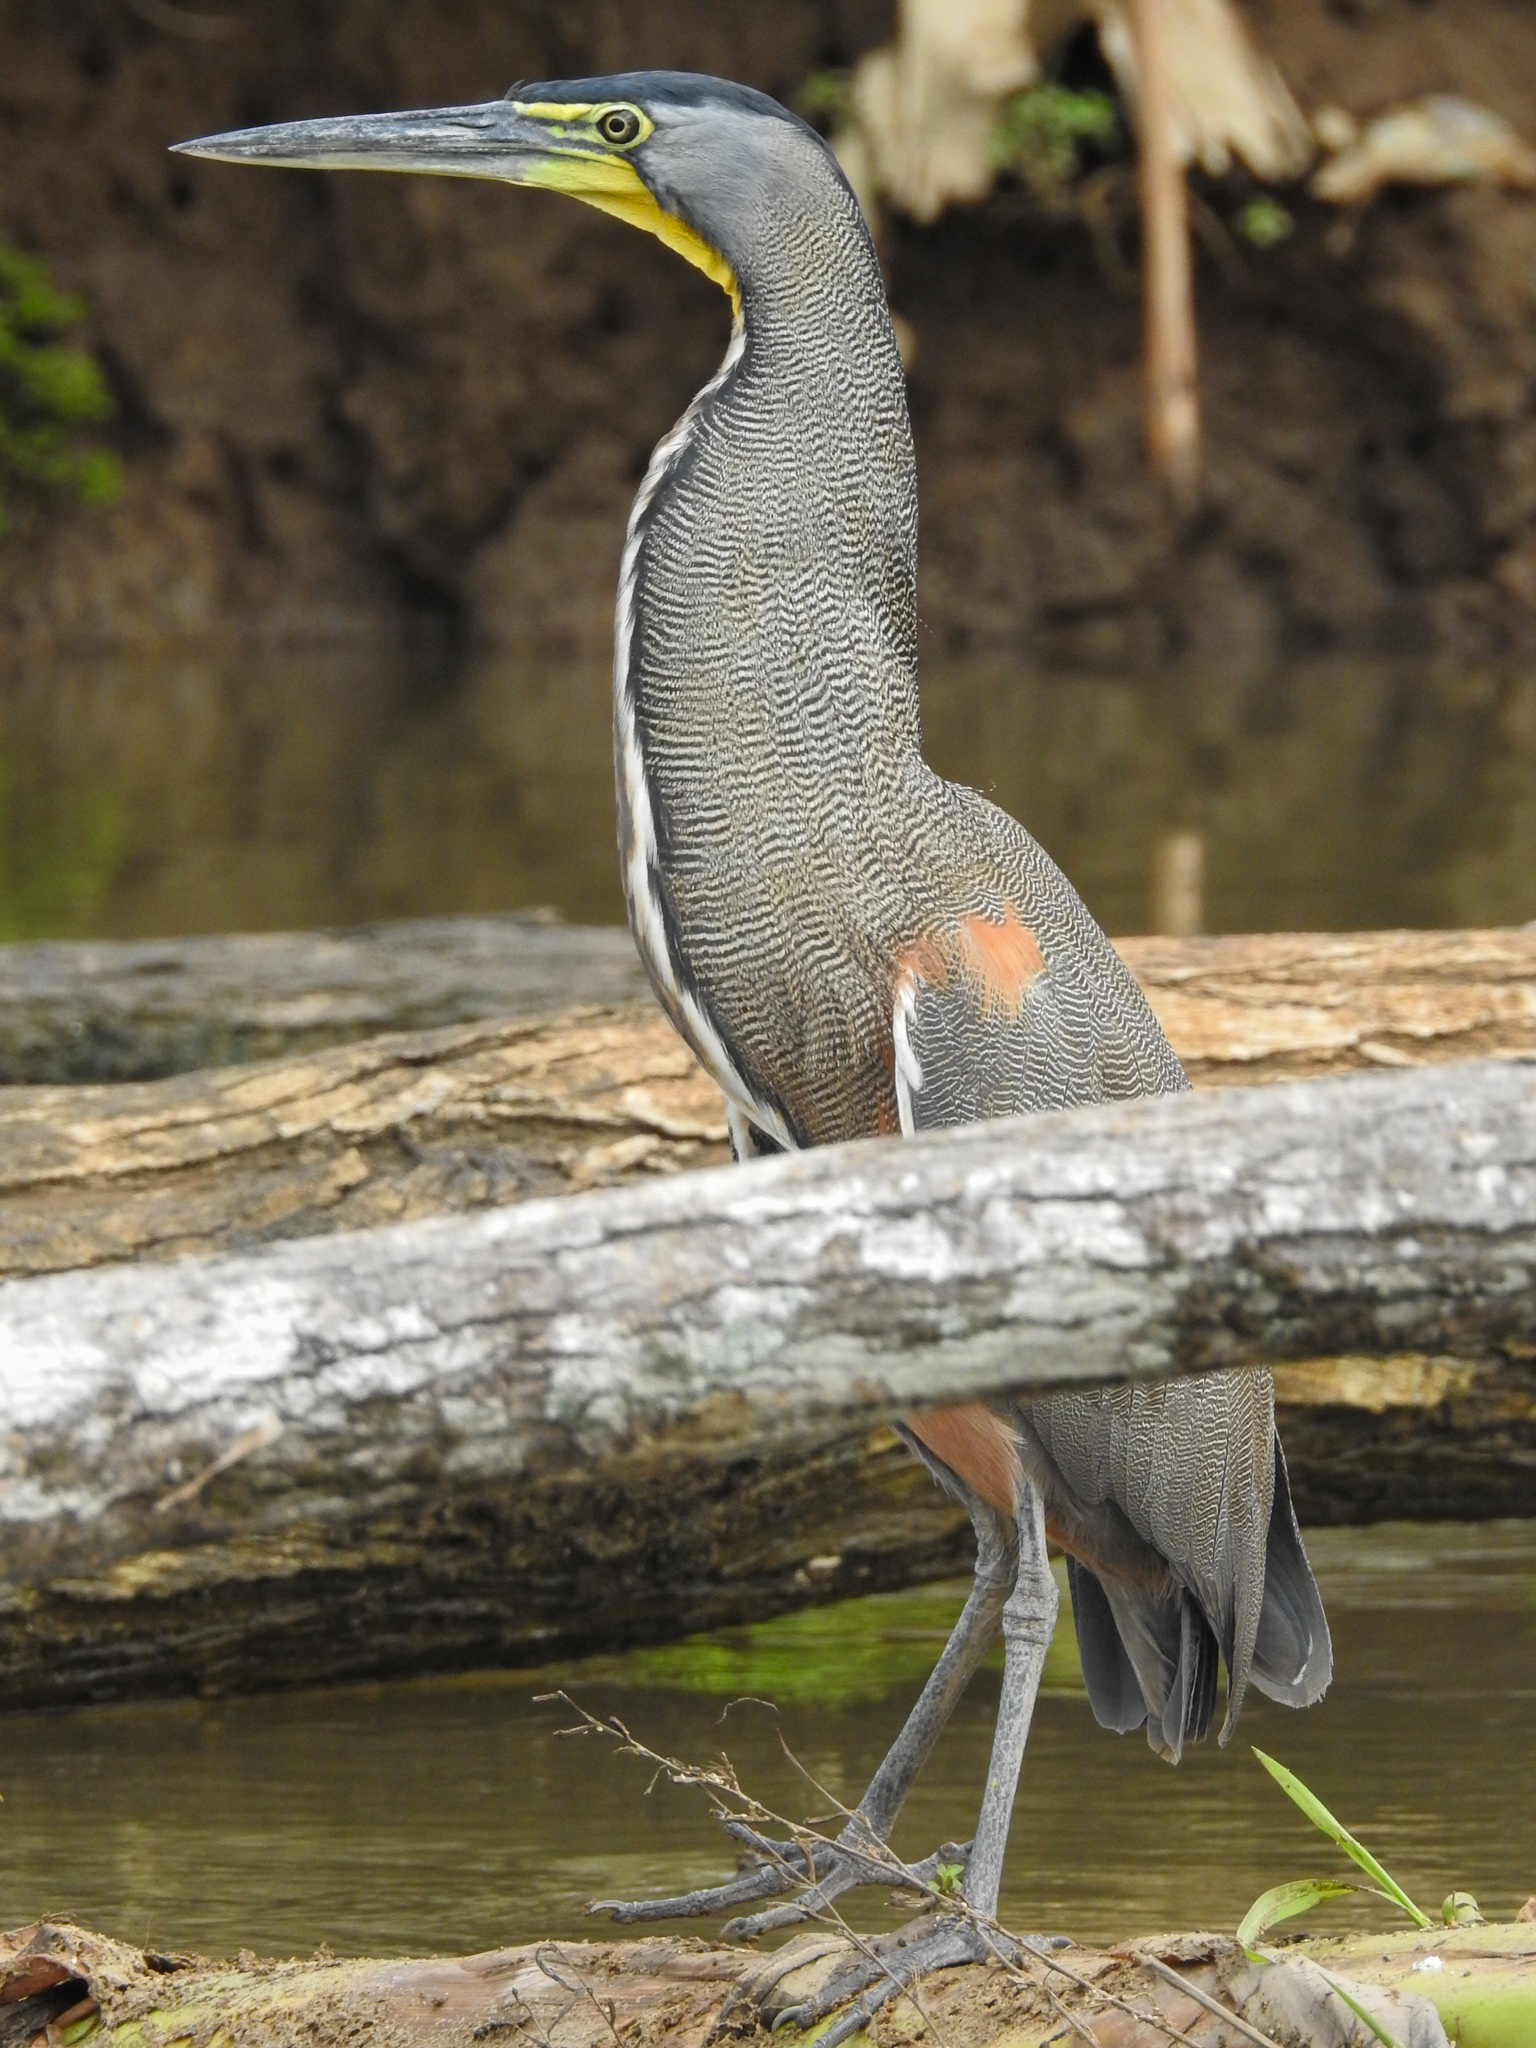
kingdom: Animalia
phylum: Chordata
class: Aves
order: Pelecaniformes
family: Ardeidae
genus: Tigrisoma
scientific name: Tigrisoma mexicanum
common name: Bare-throated tiger-heron
